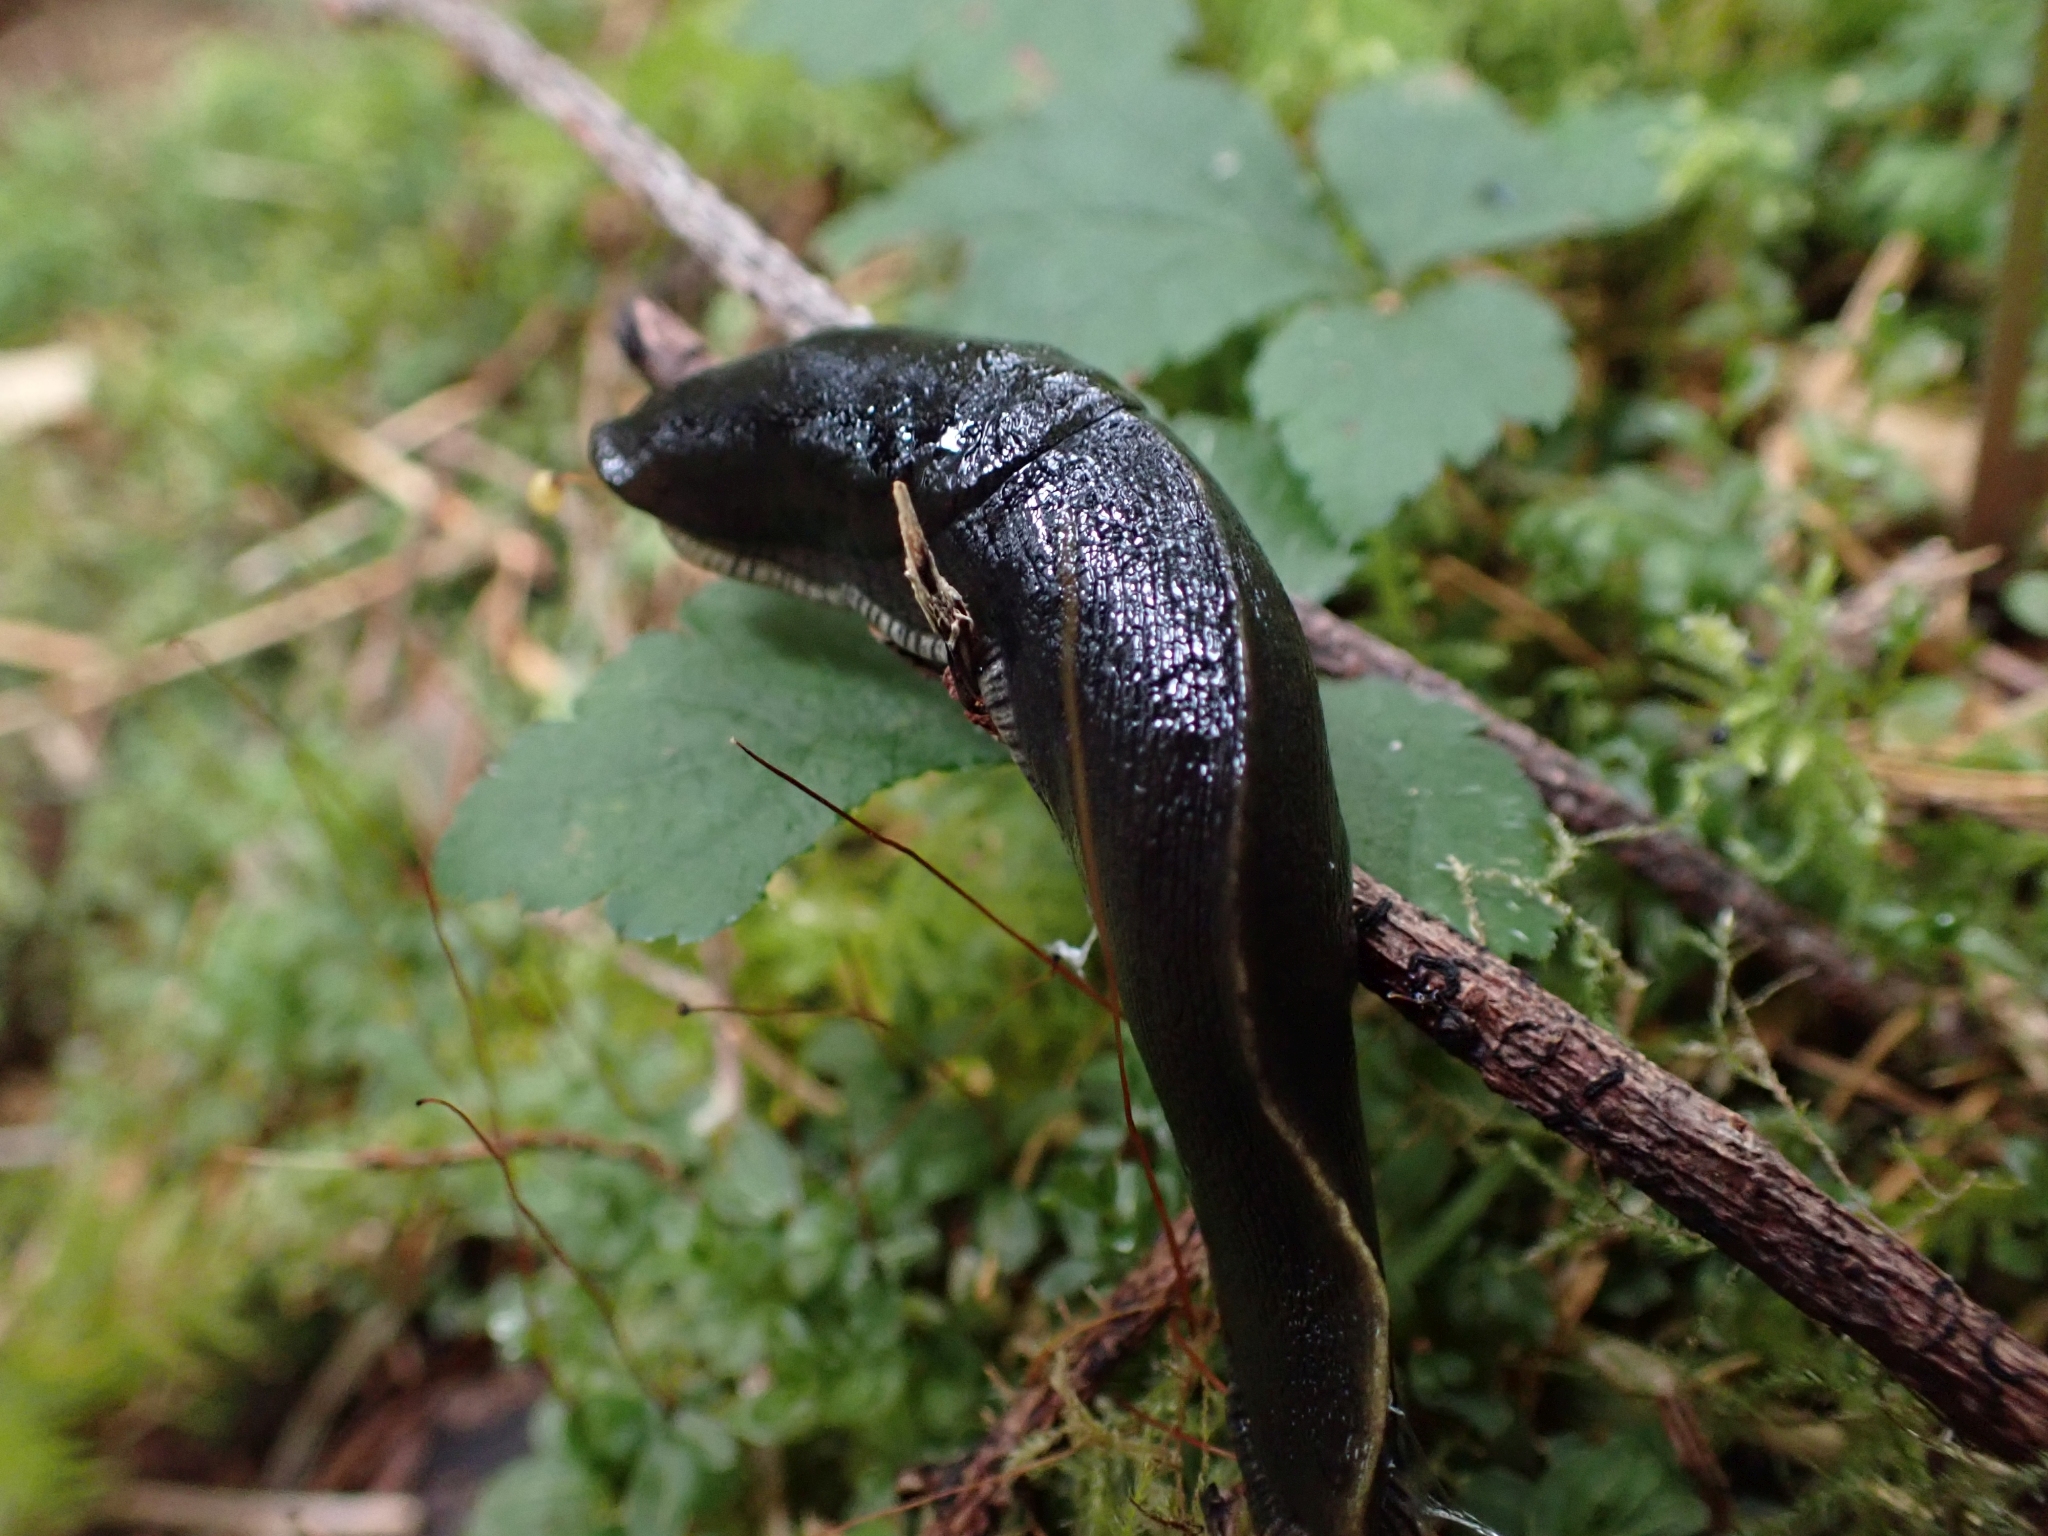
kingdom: Animalia
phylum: Mollusca
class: Gastropoda
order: Stylommatophora
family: Ariolimacidae
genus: Ariolimax
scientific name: Ariolimax columbianus
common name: Pacific banana slug
